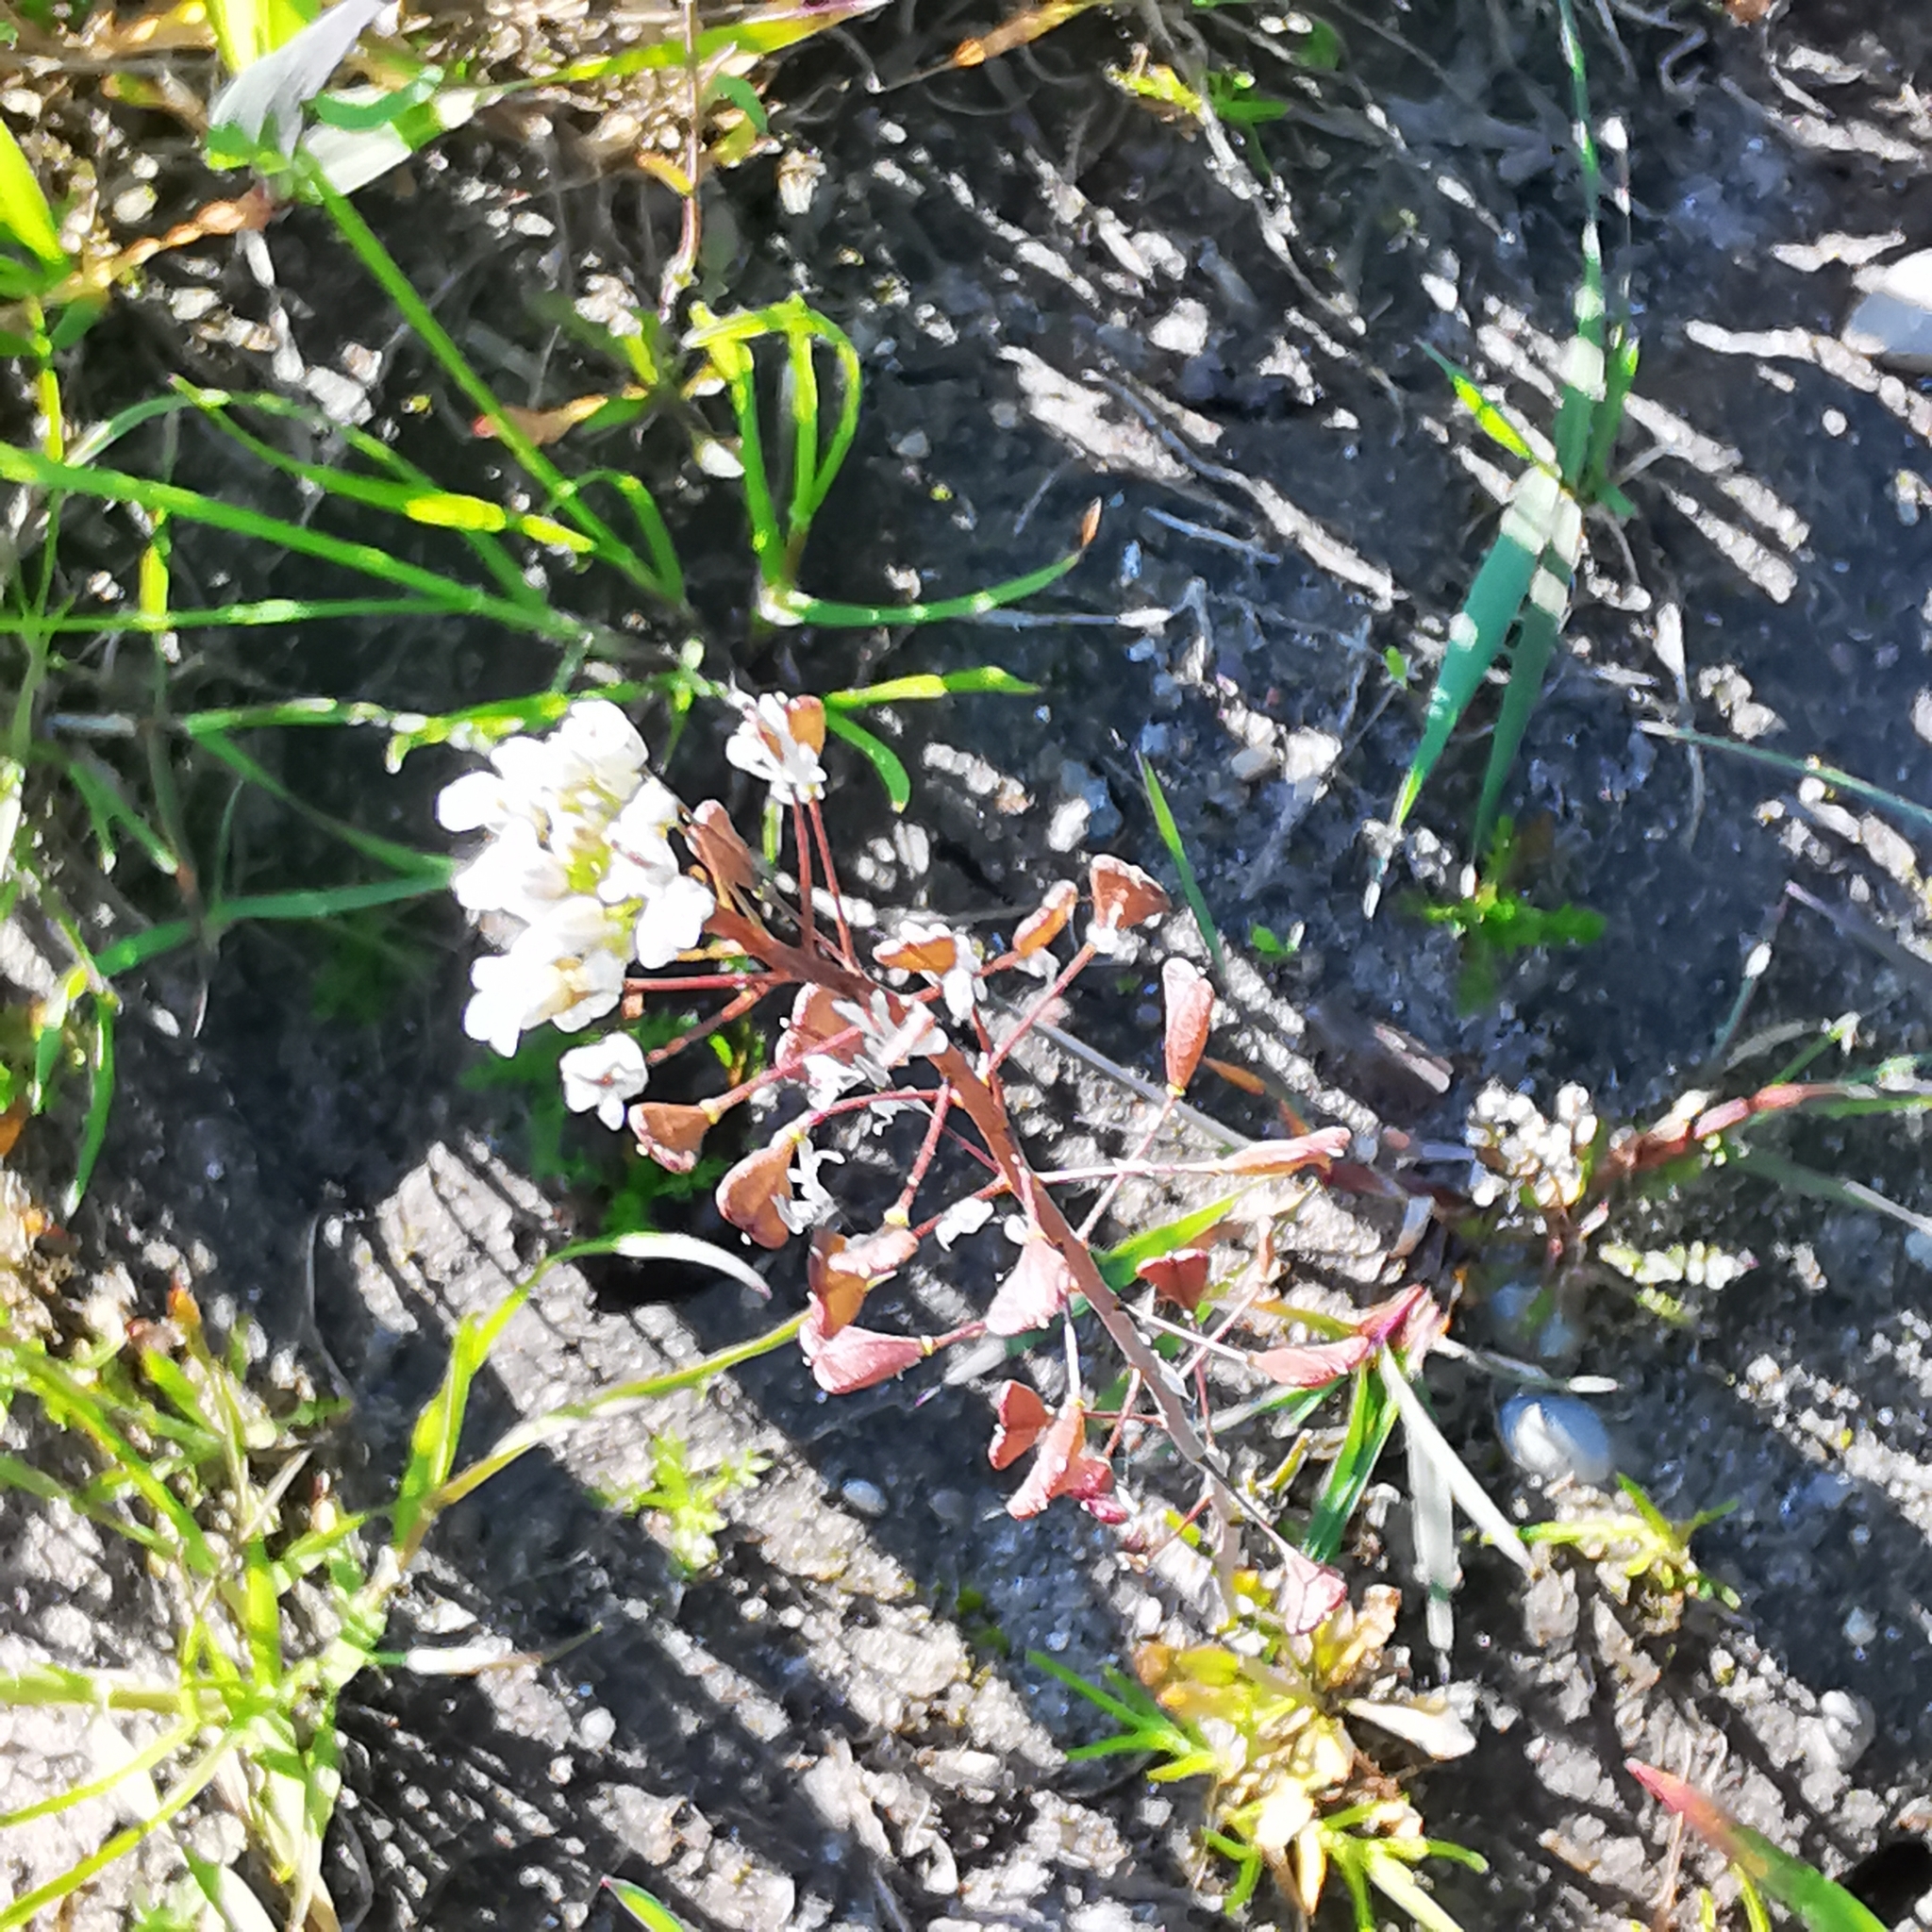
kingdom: Plantae
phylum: Tracheophyta
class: Magnoliopsida
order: Brassicales
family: Brassicaceae
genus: Capsella
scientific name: Capsella bursa-pastoris
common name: Shepherd's purse
